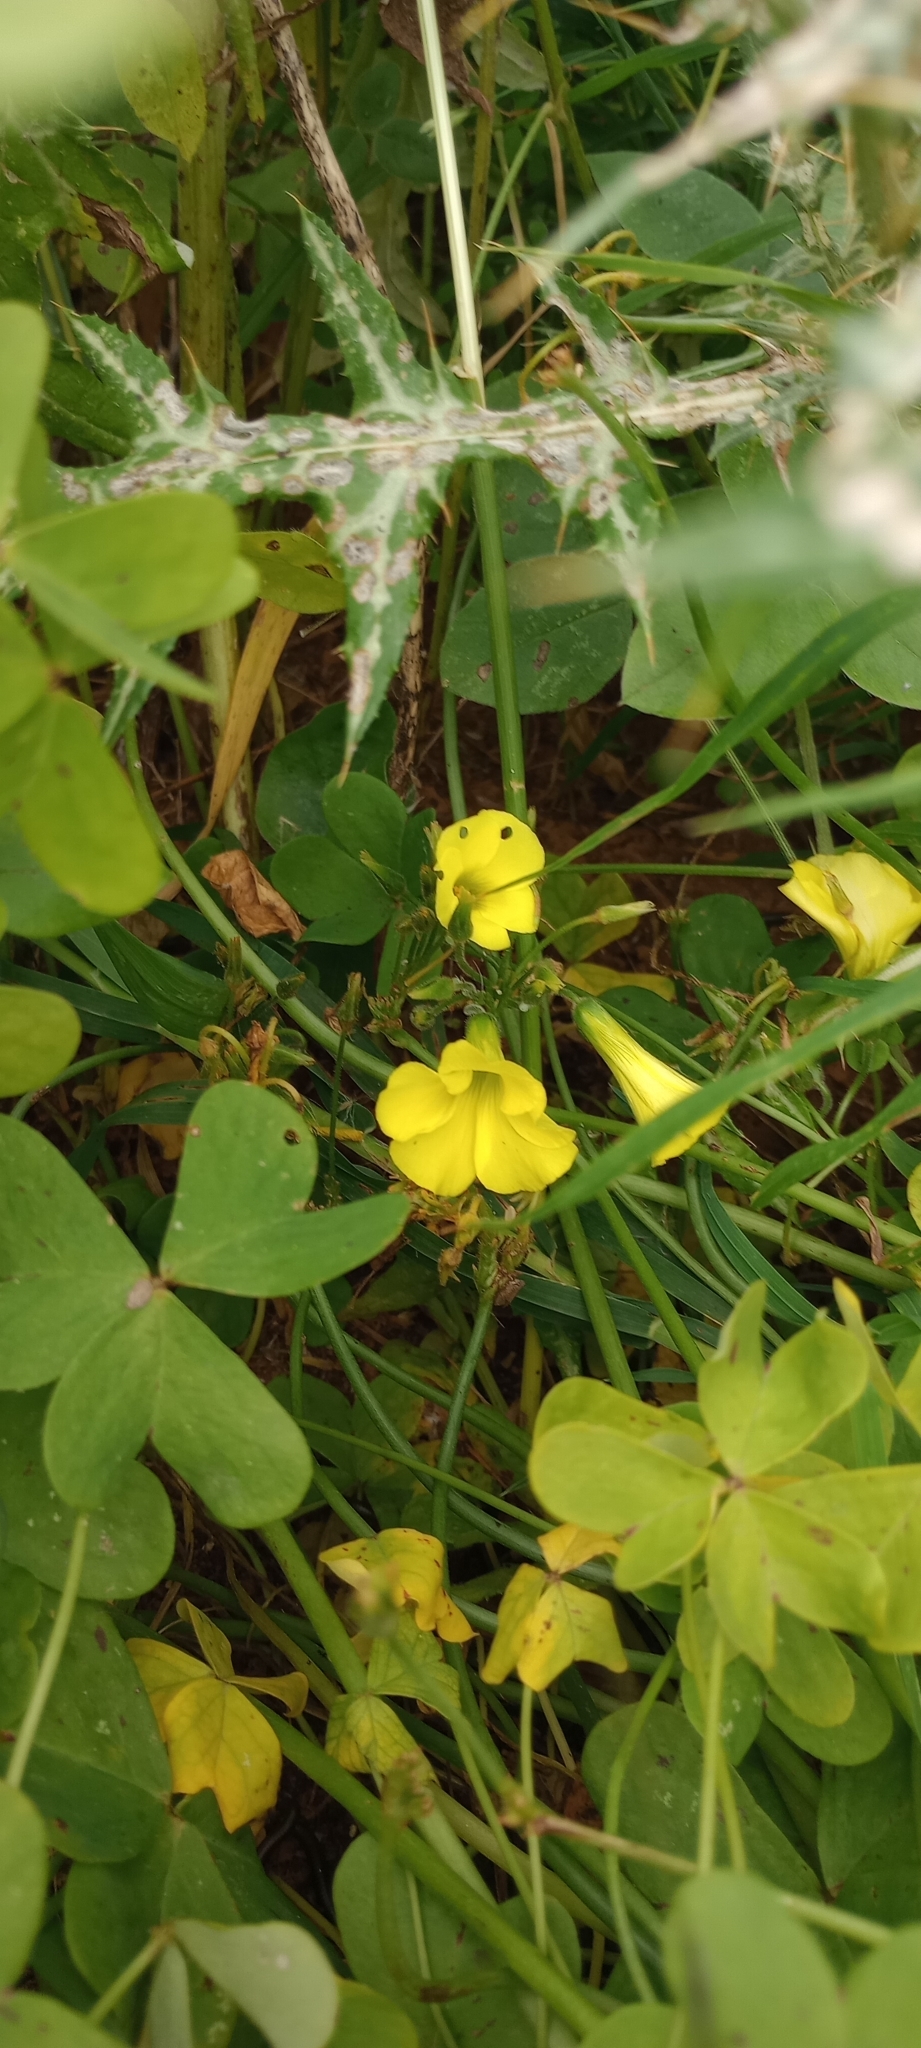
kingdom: Plantae
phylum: Tracheophyta
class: Magnoliopsida
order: Oxalidales
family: Oxalidaceae
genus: Oxalis
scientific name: Oxalis pes-caprae
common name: Bermuda-buttercup
